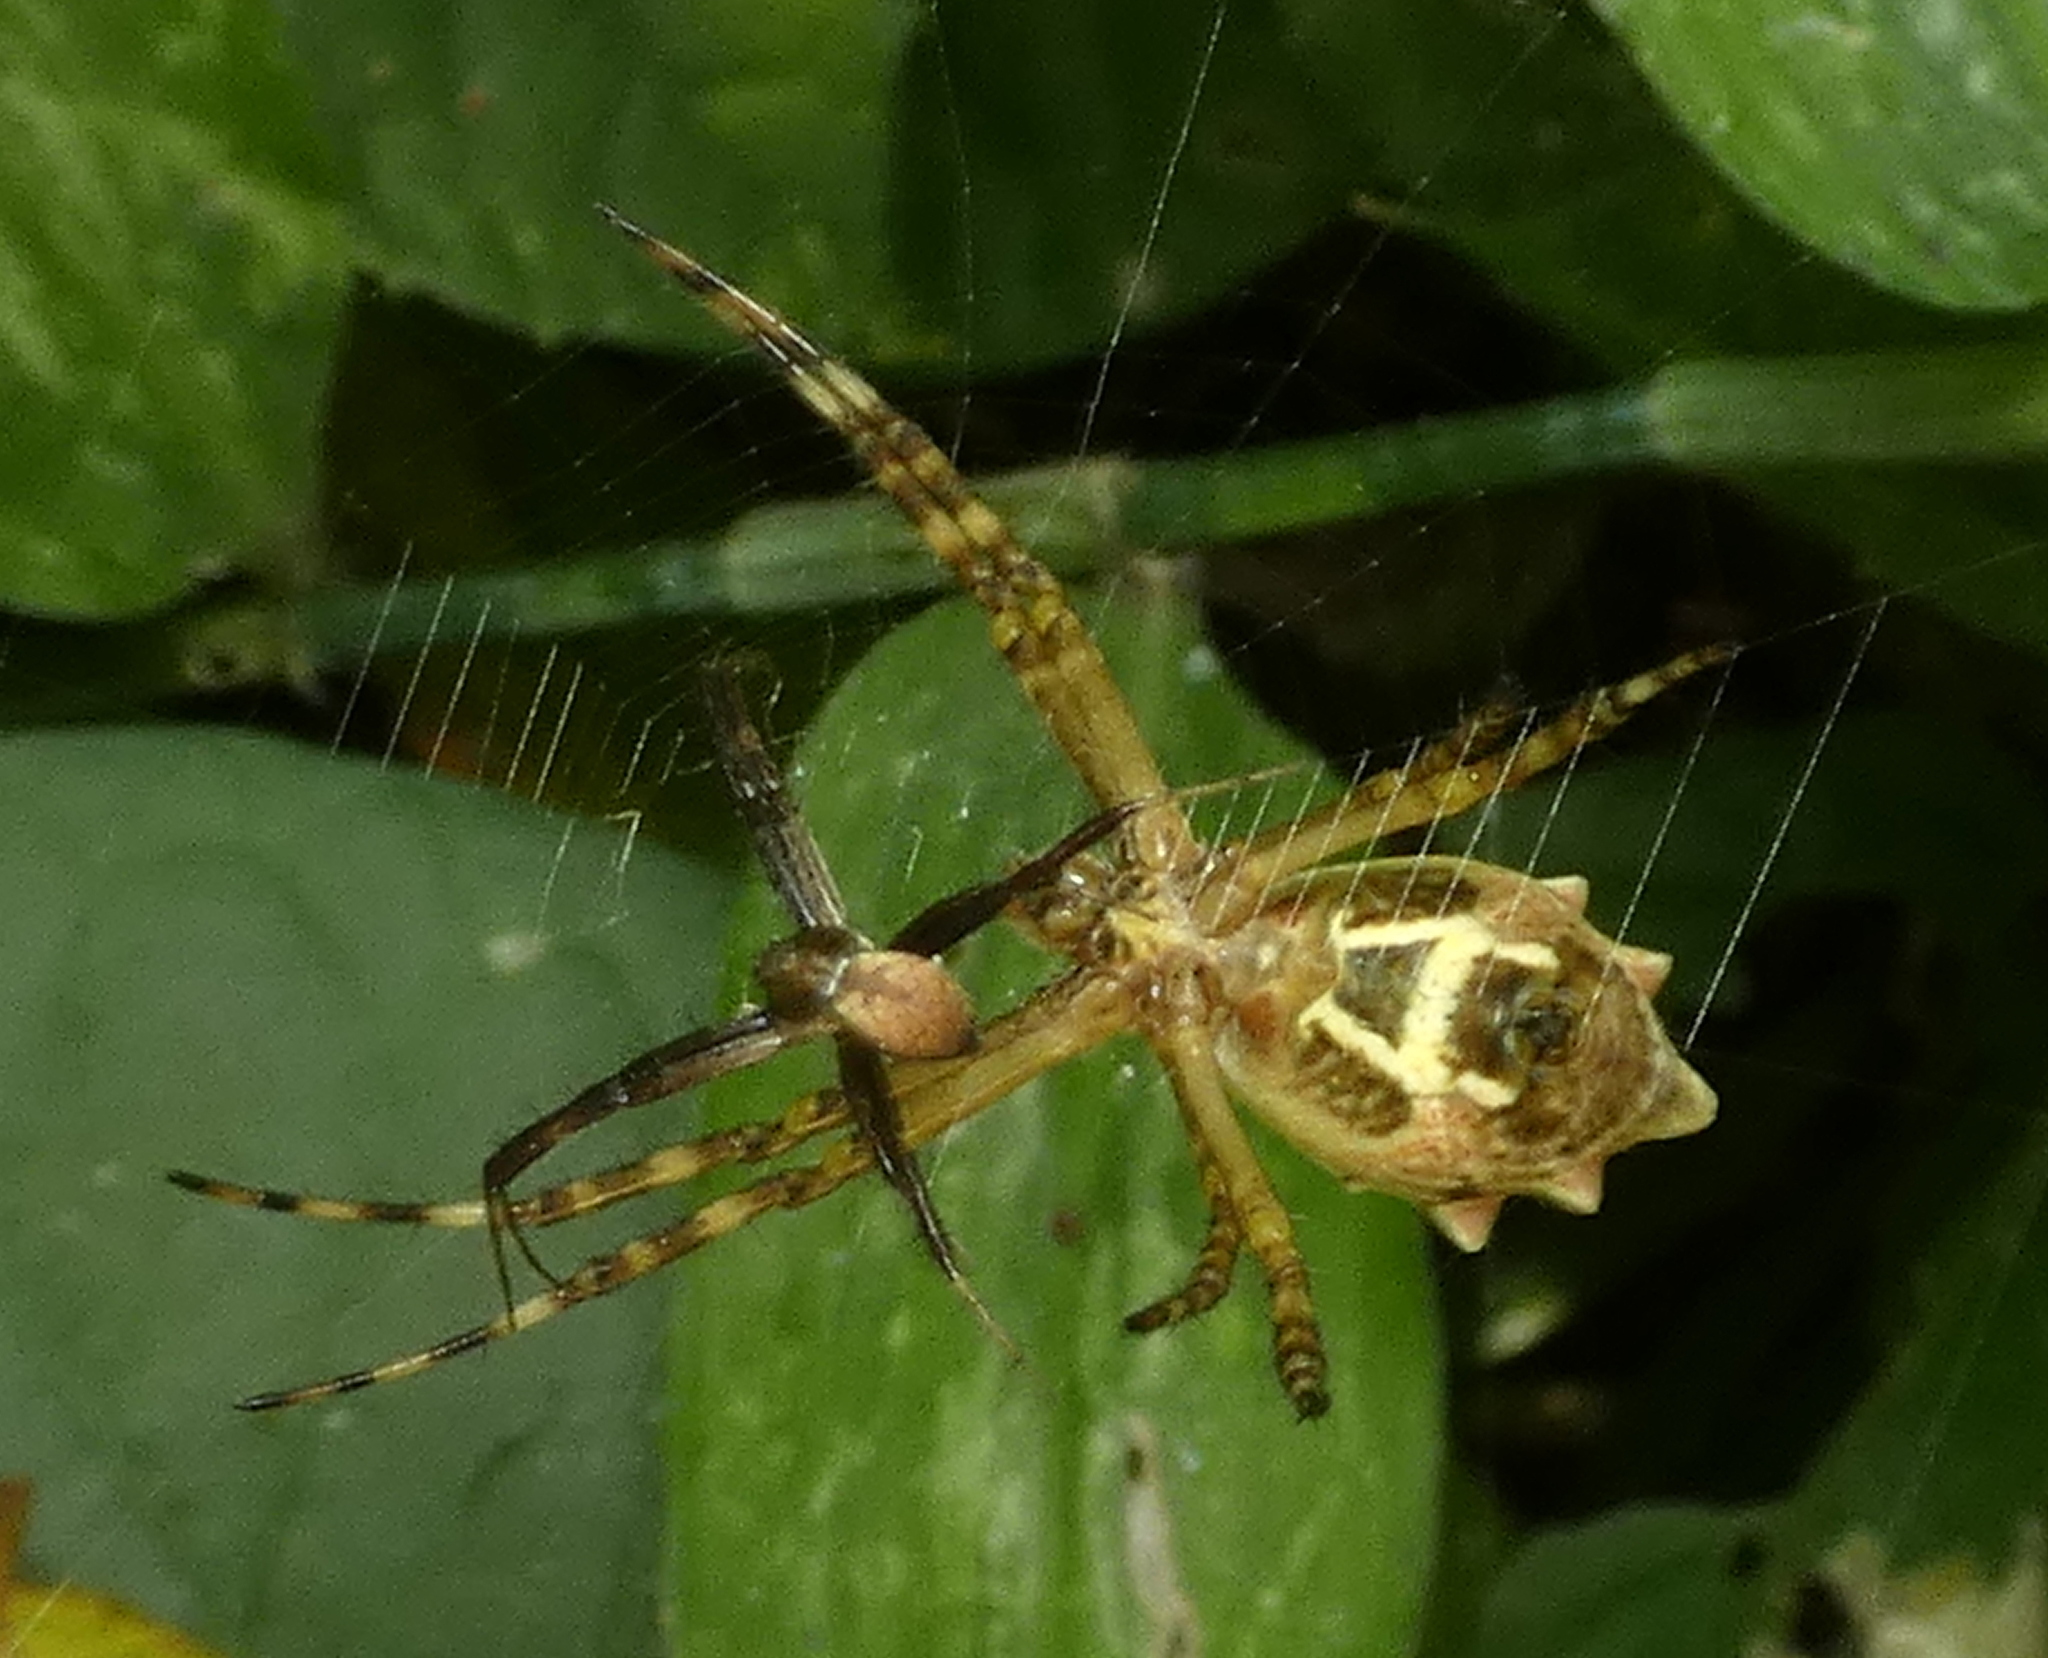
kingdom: Animalia
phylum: Arthropoda
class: Arachnida
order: Araneae
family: Araneidae
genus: Argiope
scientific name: Argiope argentata
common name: Orb weavers
